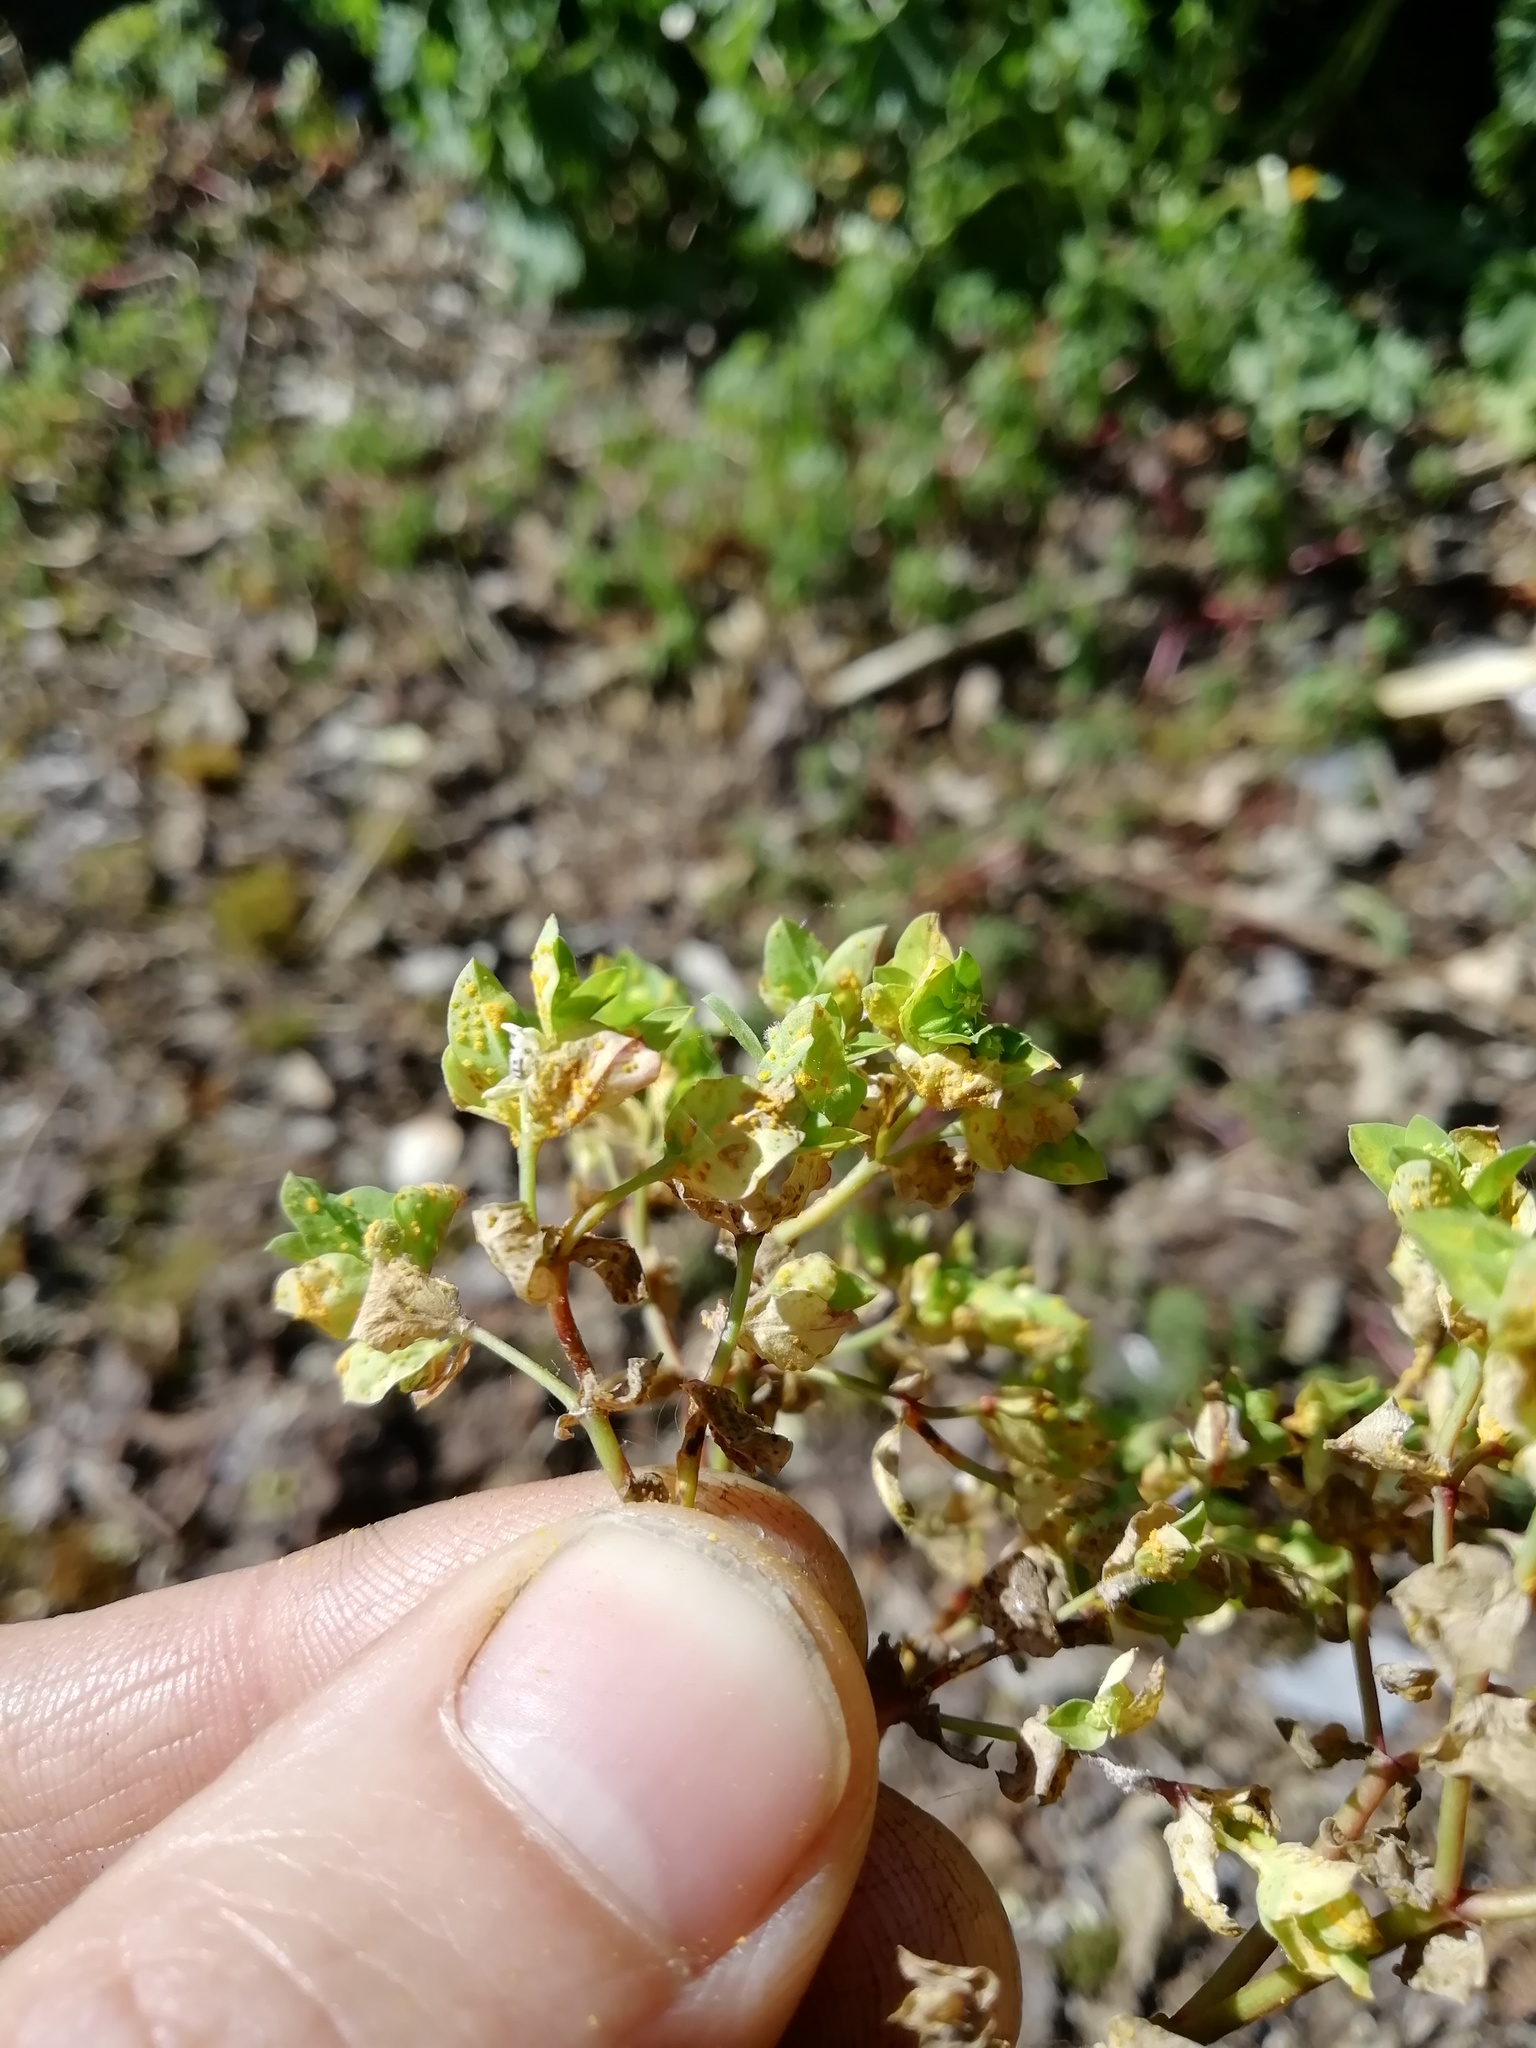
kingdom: Fungi
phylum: Basidiomycota
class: Pucciniomycetes
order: Pucciniales
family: Melampsoraceae
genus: Melampsora
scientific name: Melampsora euphorbiae
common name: Spurge rust
